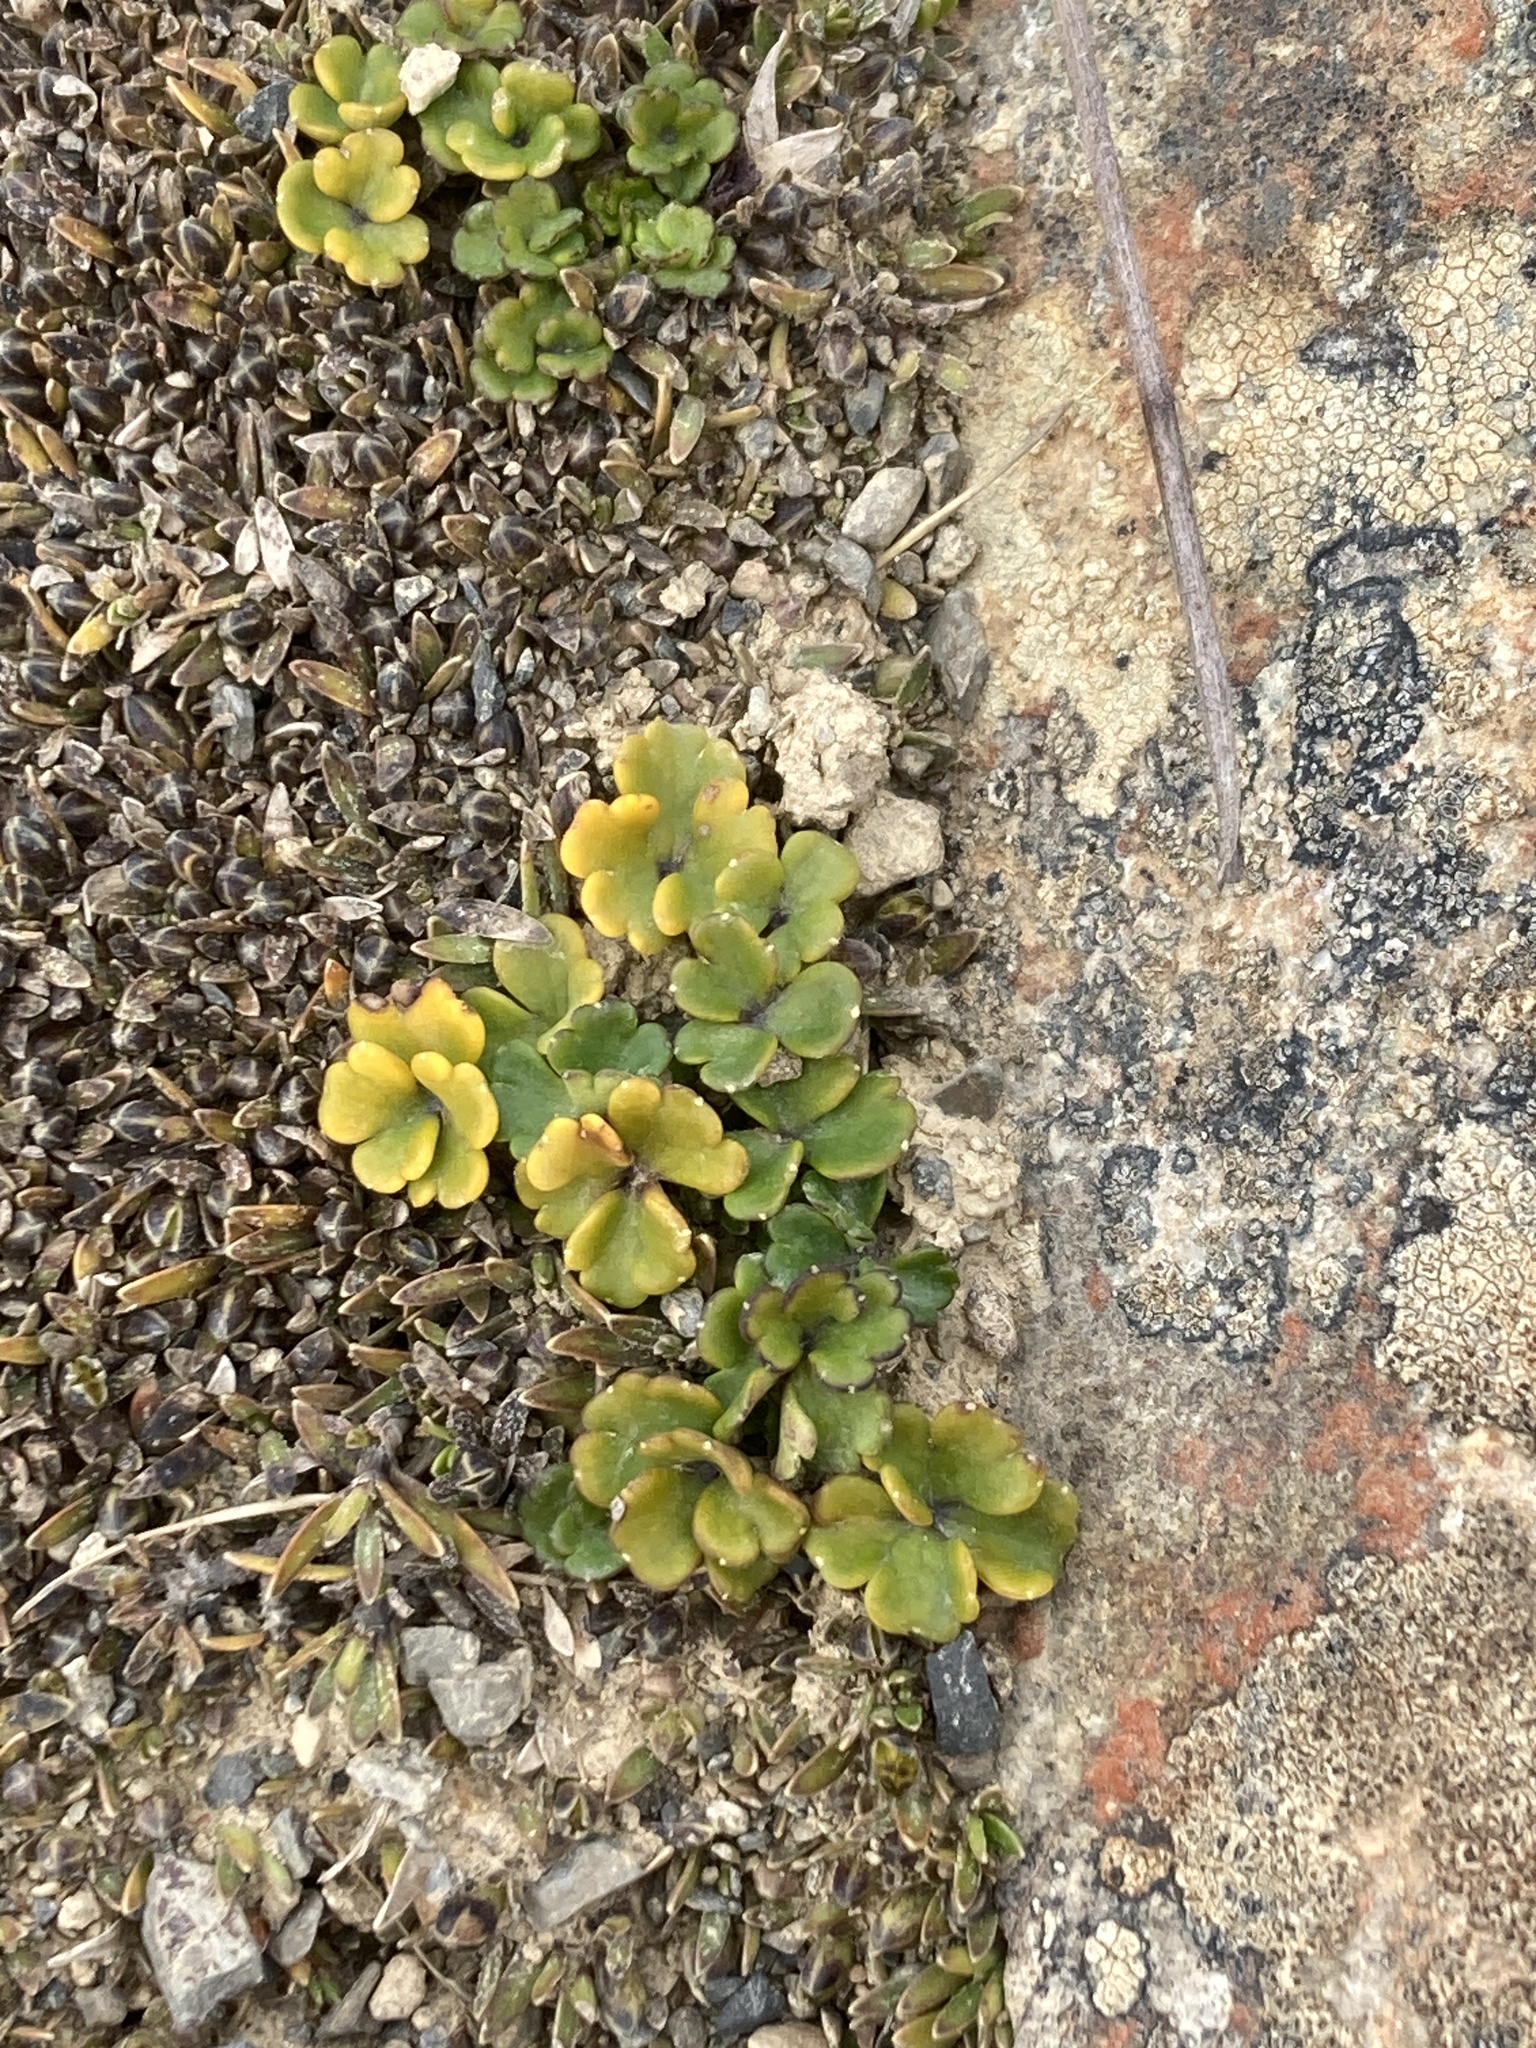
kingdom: Plantae
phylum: Tracheophyta
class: Magnoliopsida
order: Apiales
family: Apiaceae
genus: Azorella
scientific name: Azorella hydrocotyloides
